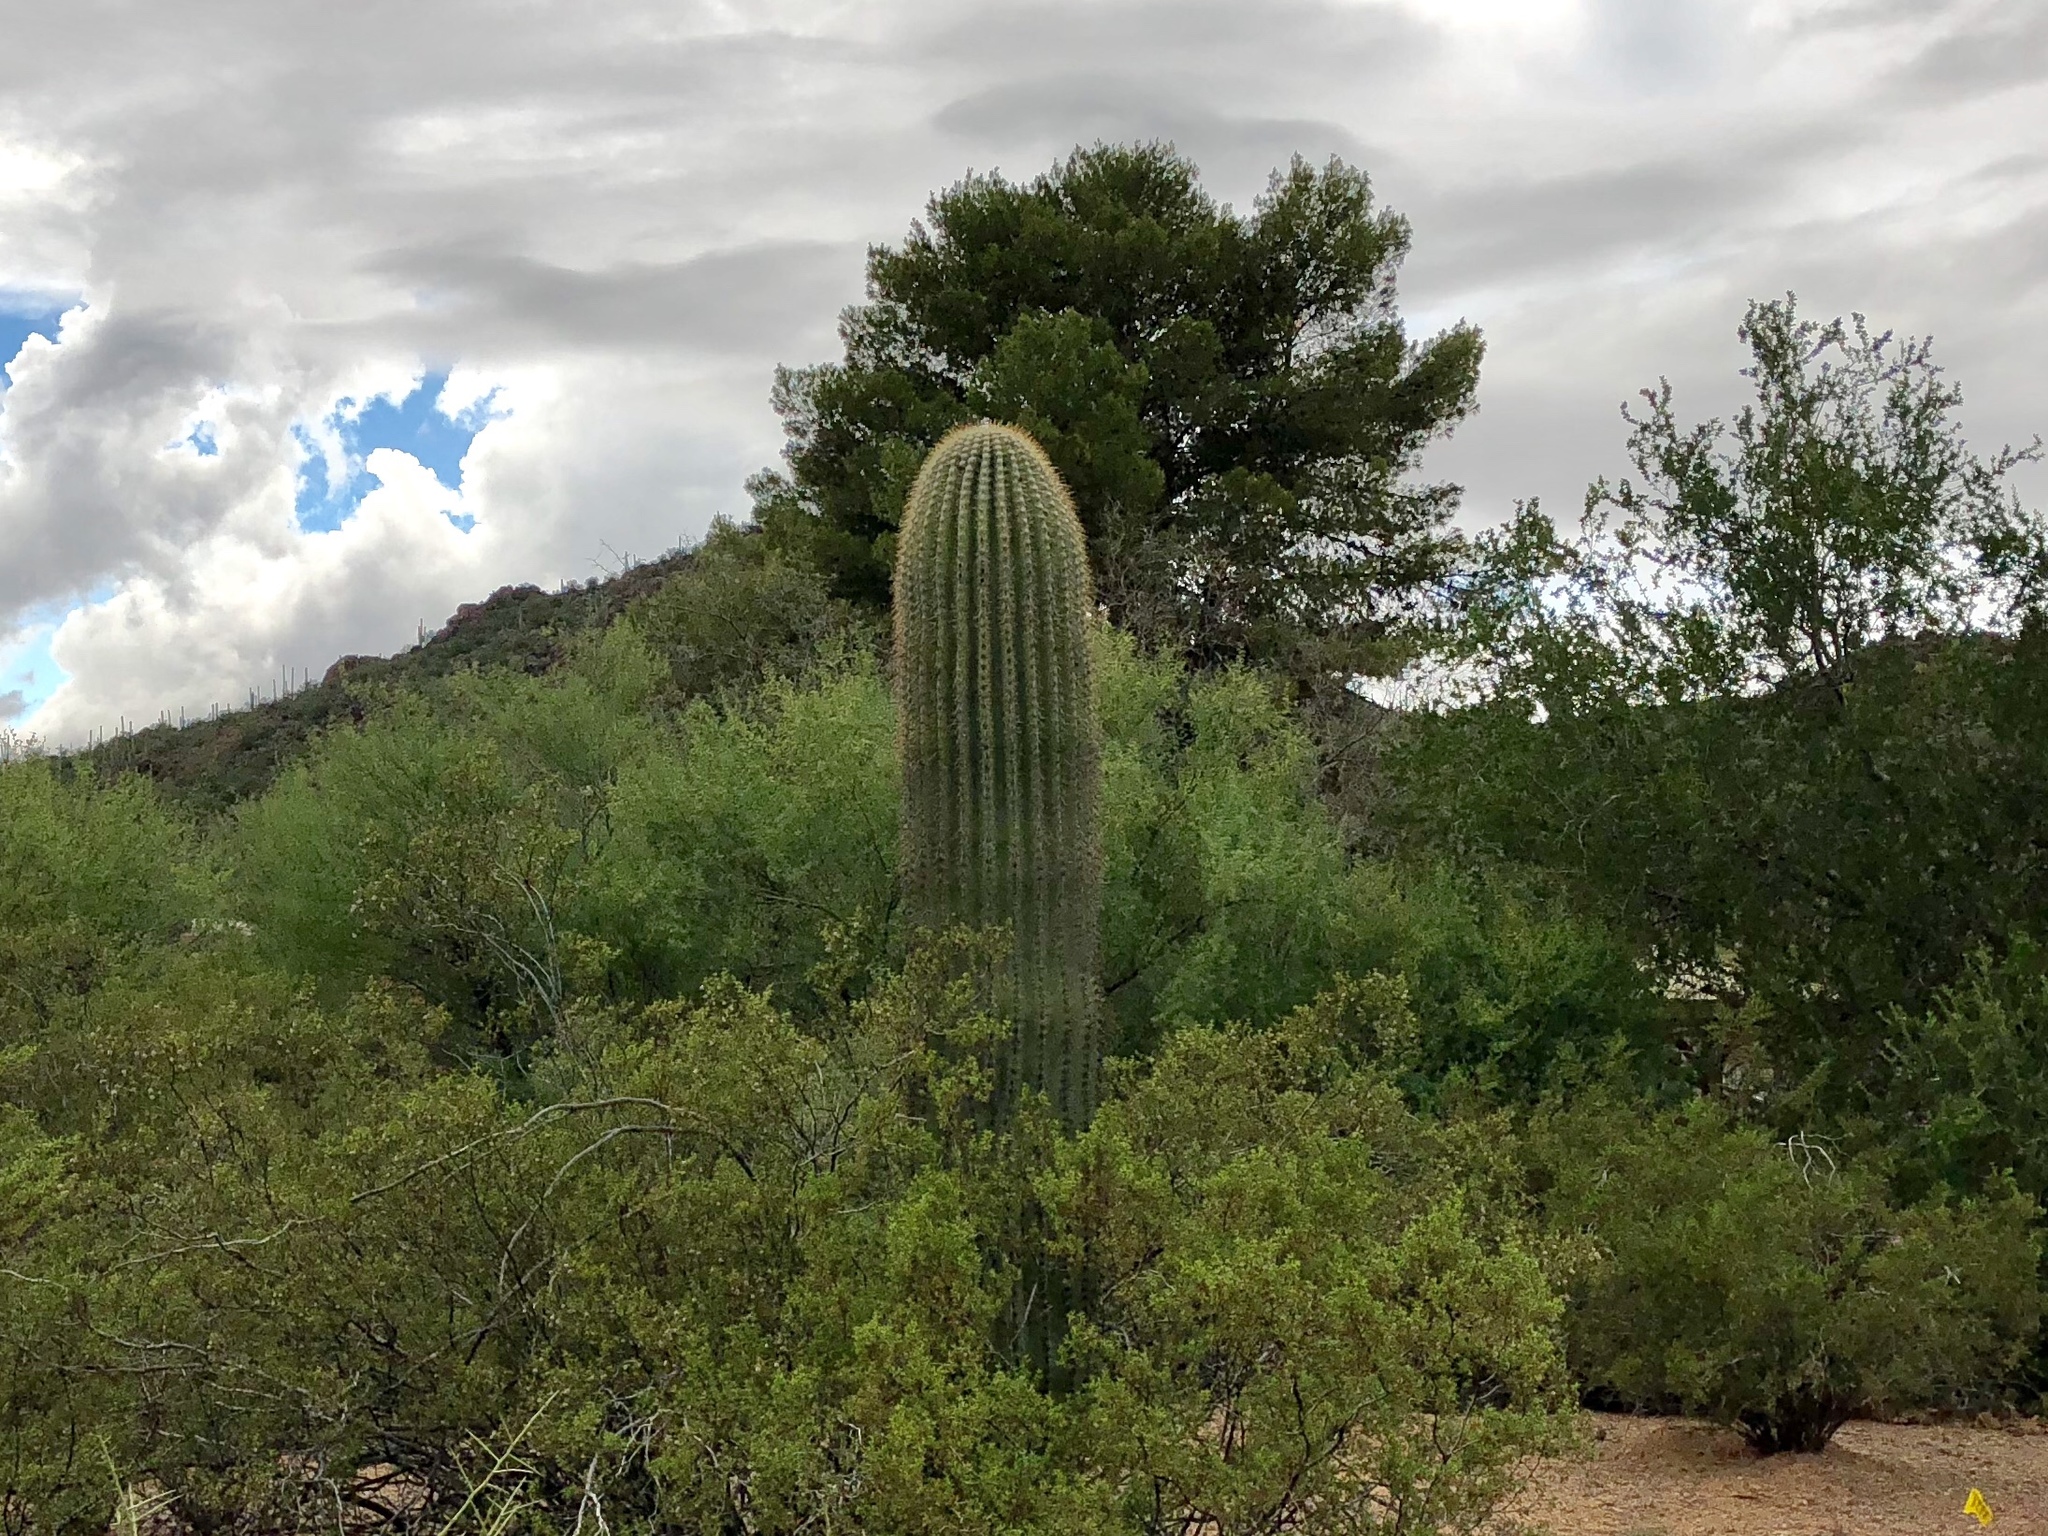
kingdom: Plantae
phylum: Tracheophyta
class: Magnoliopsida
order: Caryophyllales
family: Cactaceae
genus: Carnegiea
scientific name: Carnegiea gigantea
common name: Saguaro
